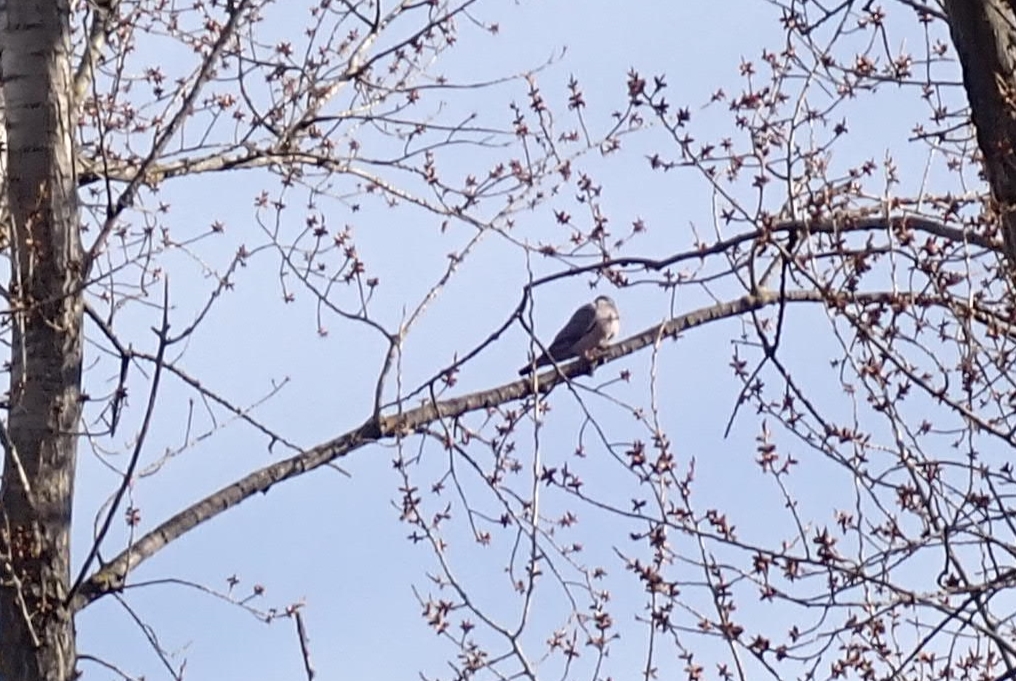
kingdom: Animalia
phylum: Chordata
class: Aves
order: Columbiformes
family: Columbidae
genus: Columba
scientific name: Columba palumbus
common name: Common wood pigeon
